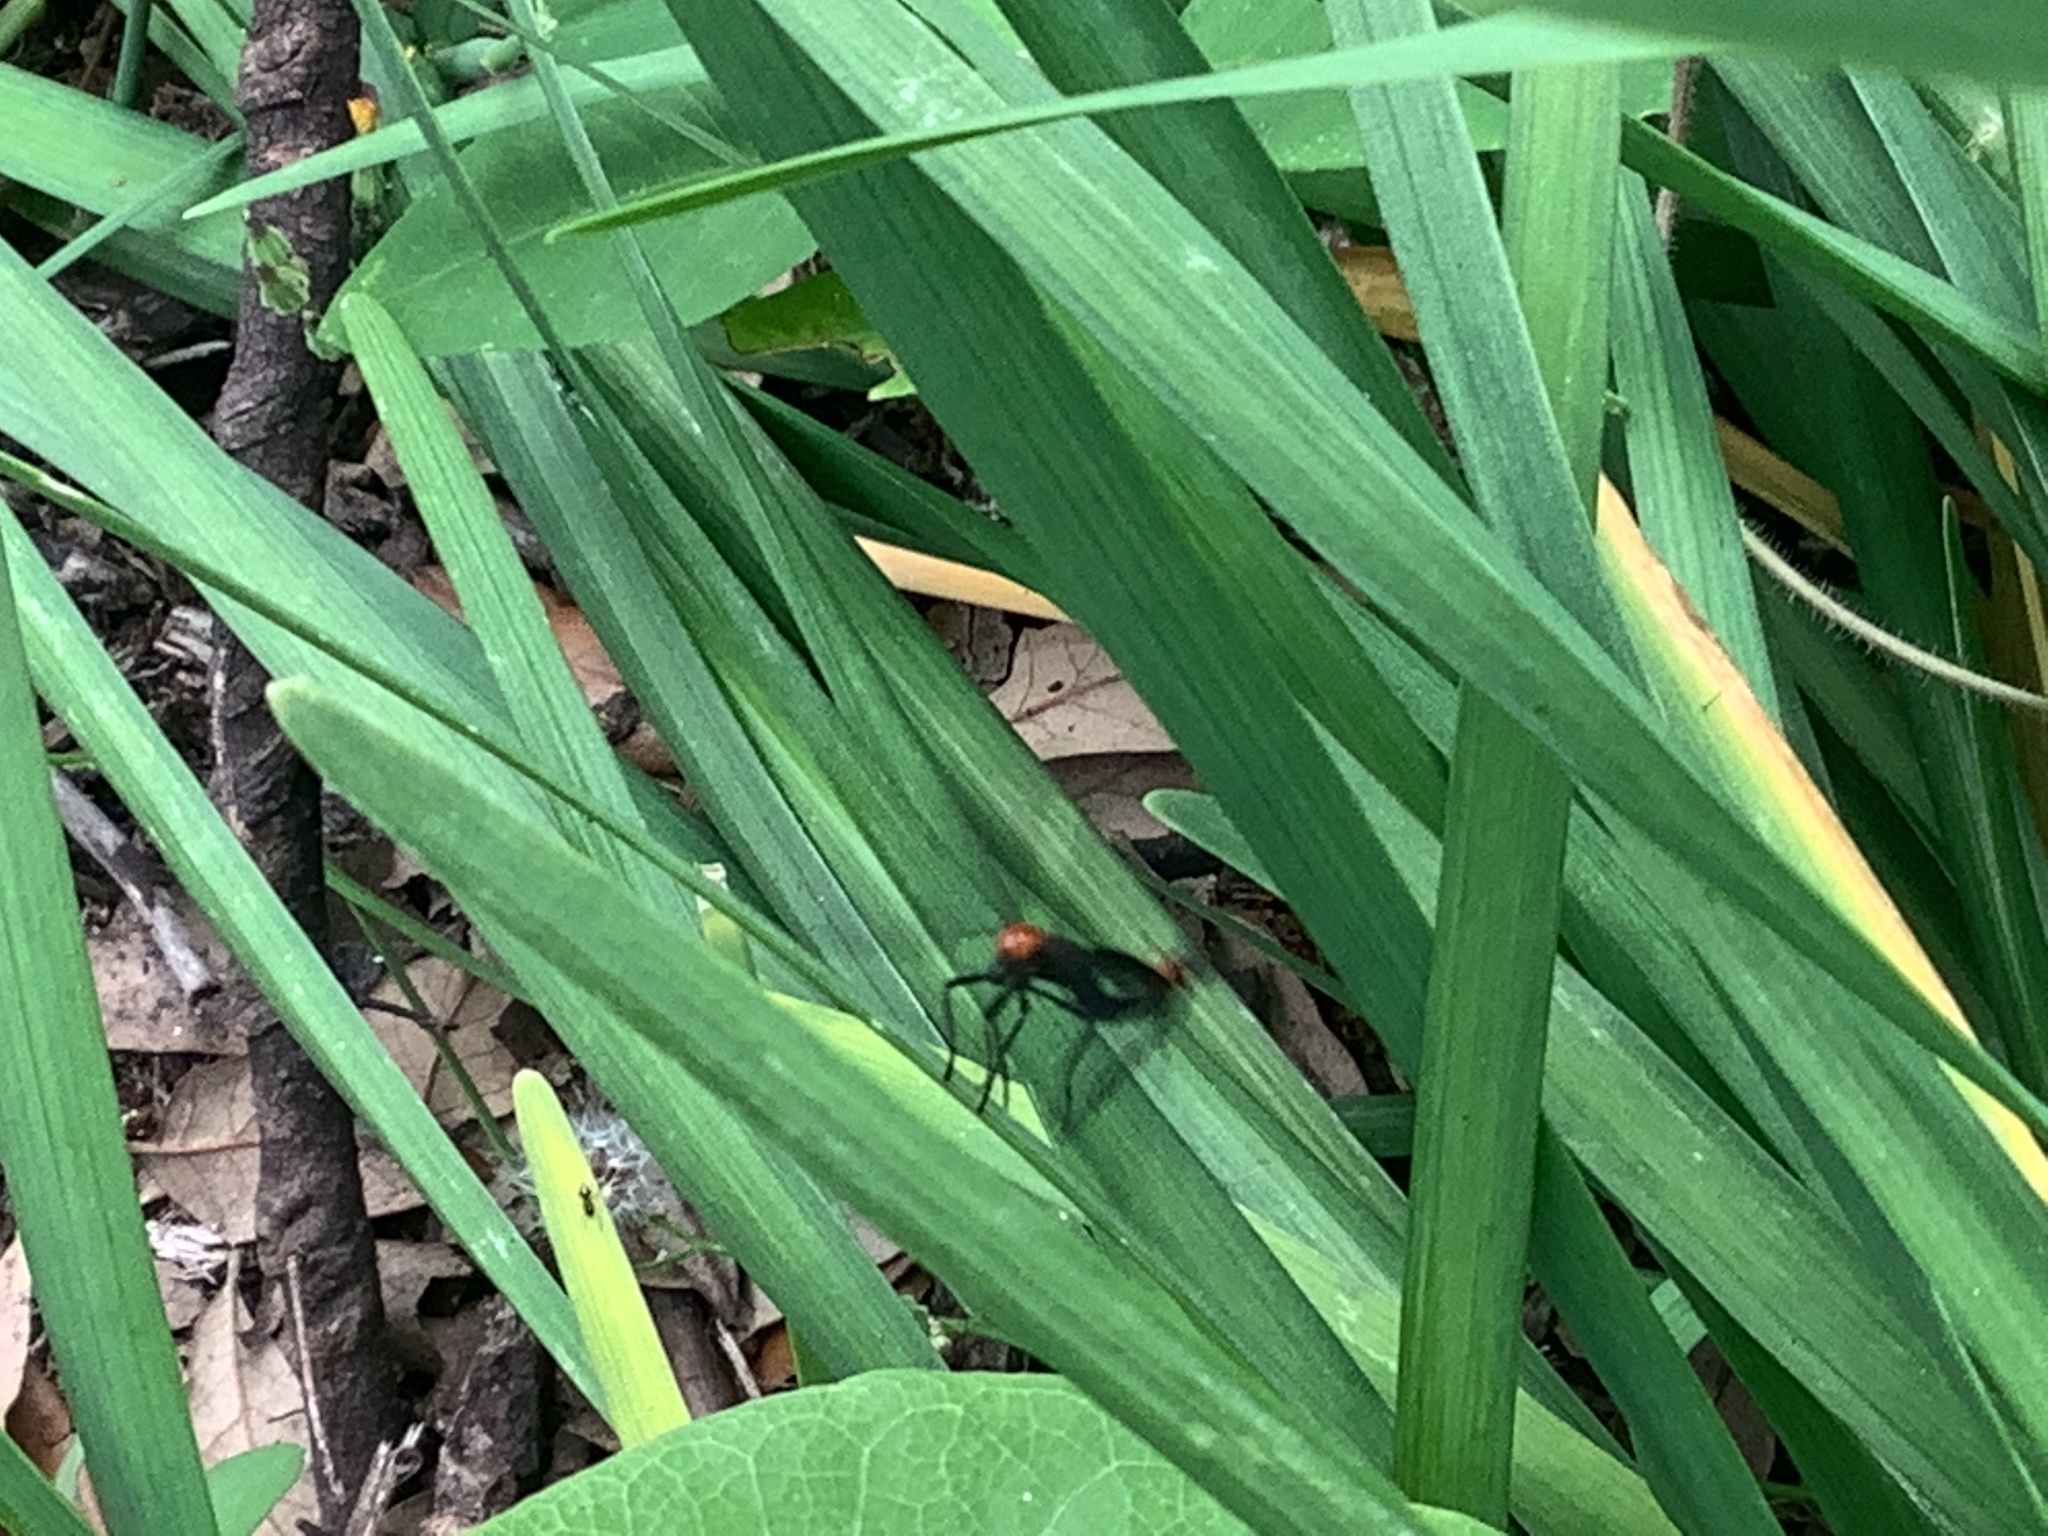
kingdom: Animalia
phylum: Arthropoda
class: Insecta
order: Diptera
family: Bibionidae
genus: Plecia
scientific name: Plecia nearctica
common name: March fly
